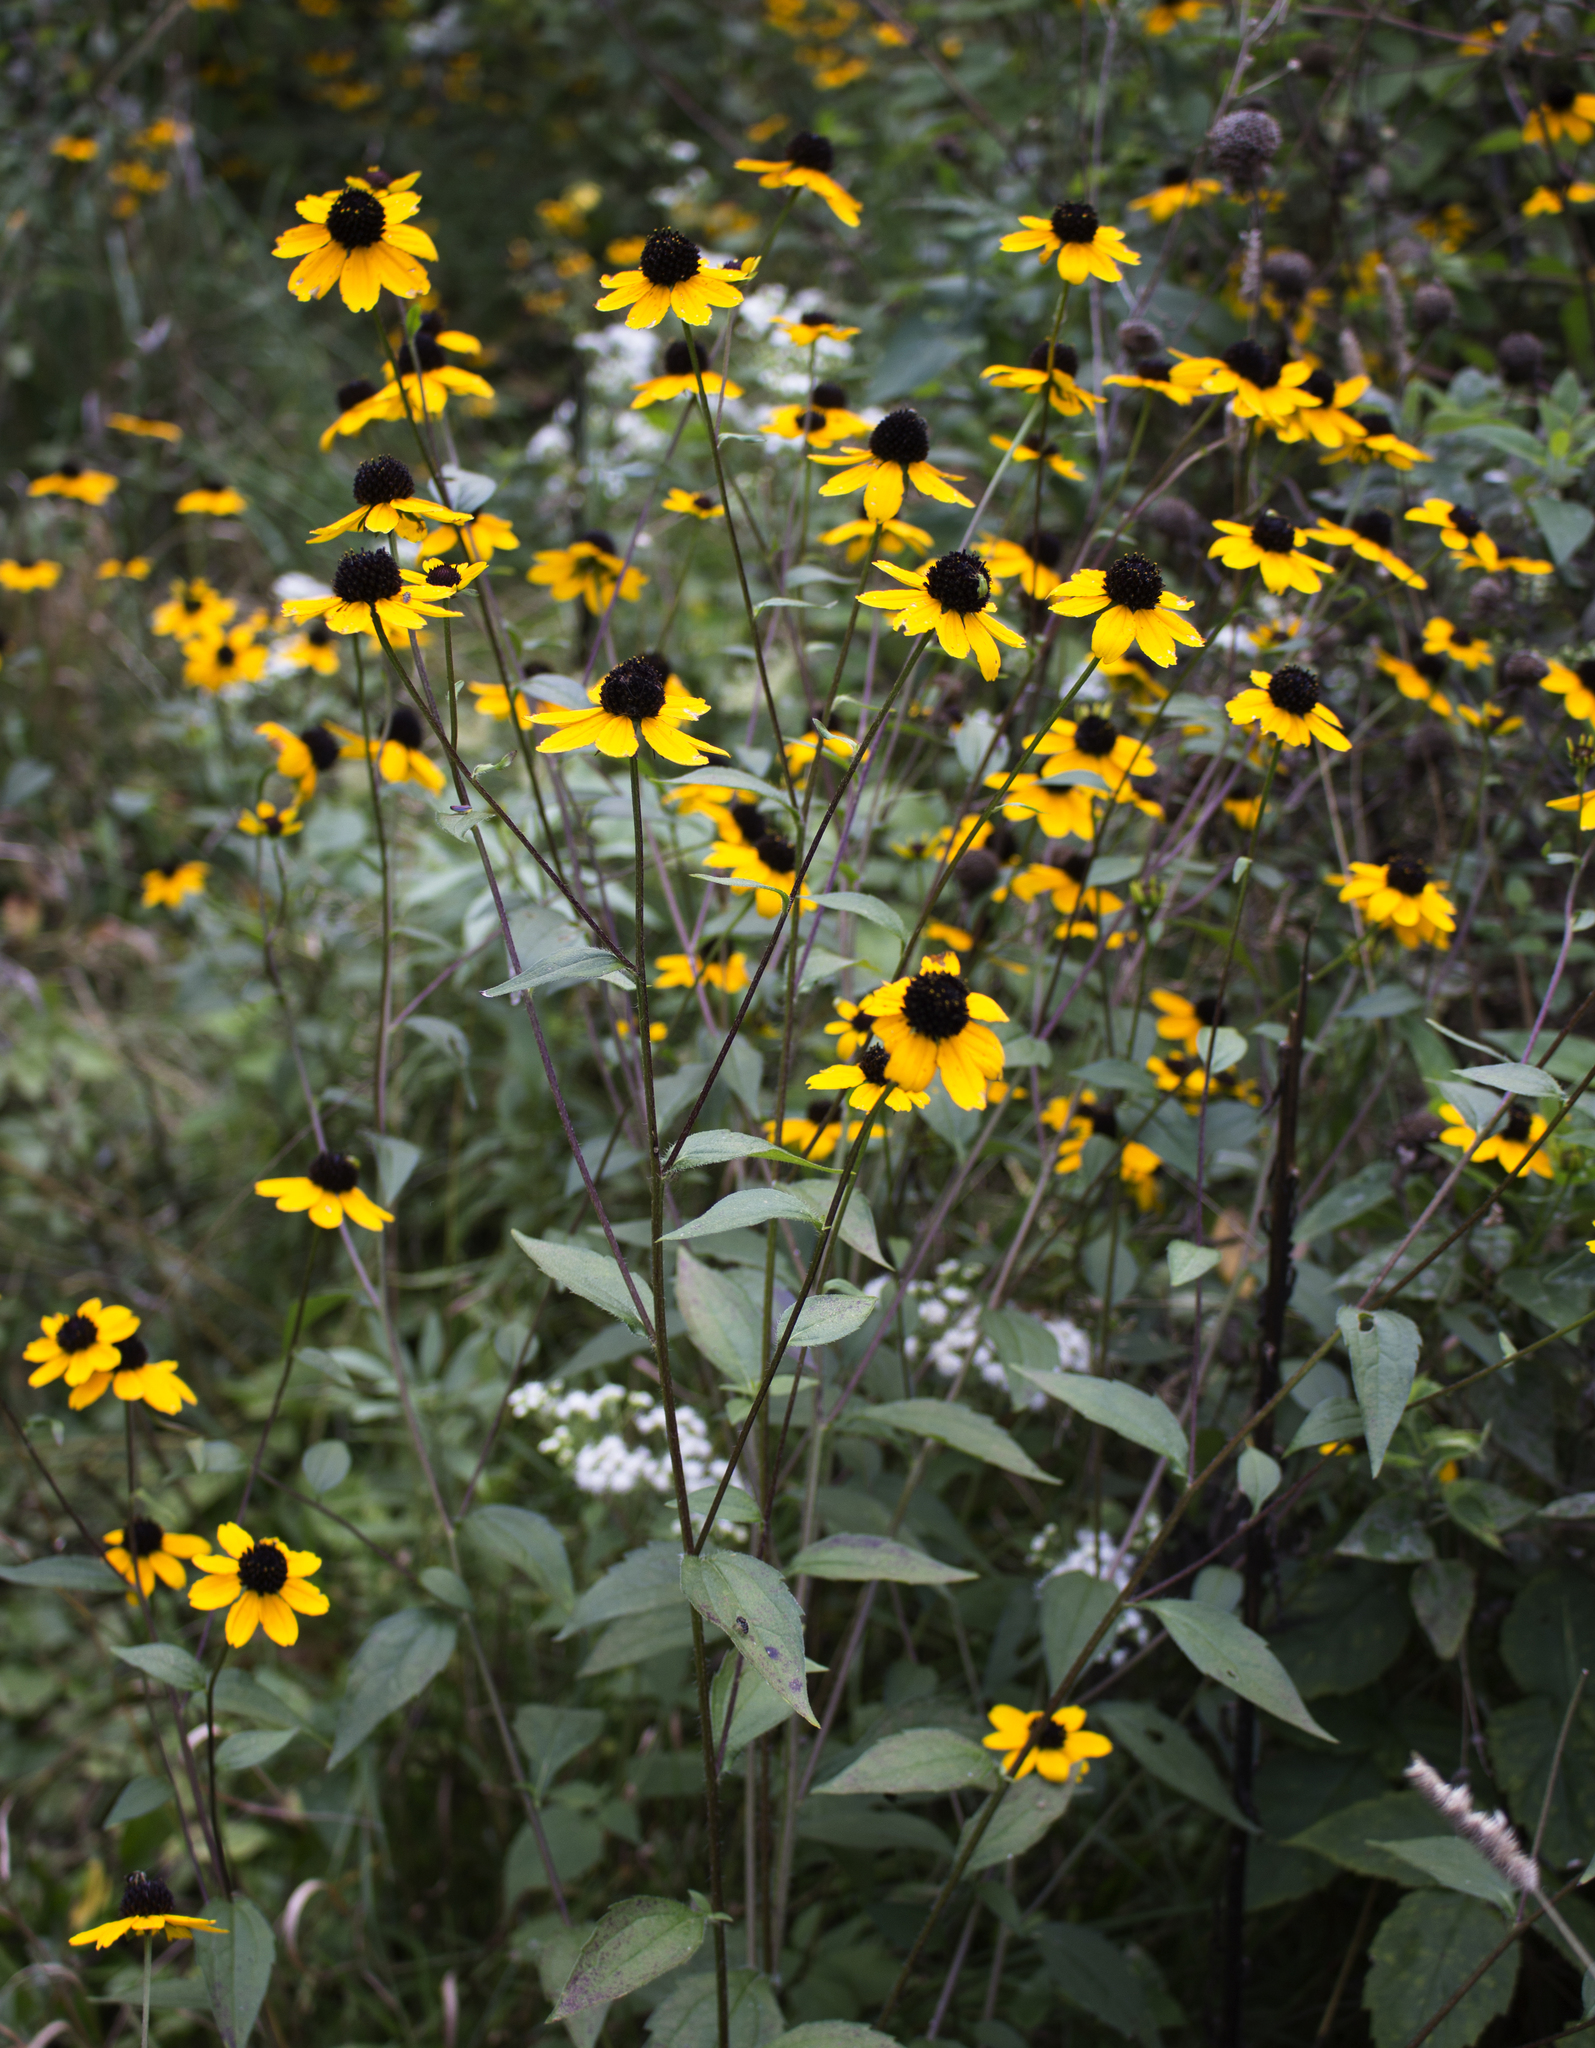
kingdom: Plantae
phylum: Tracheophyta
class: Magnoliopsida
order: Asterales
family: Asteraceae
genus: Rudbeckia
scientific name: Rudbeckia triloba
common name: Thin-leaved coneflower
